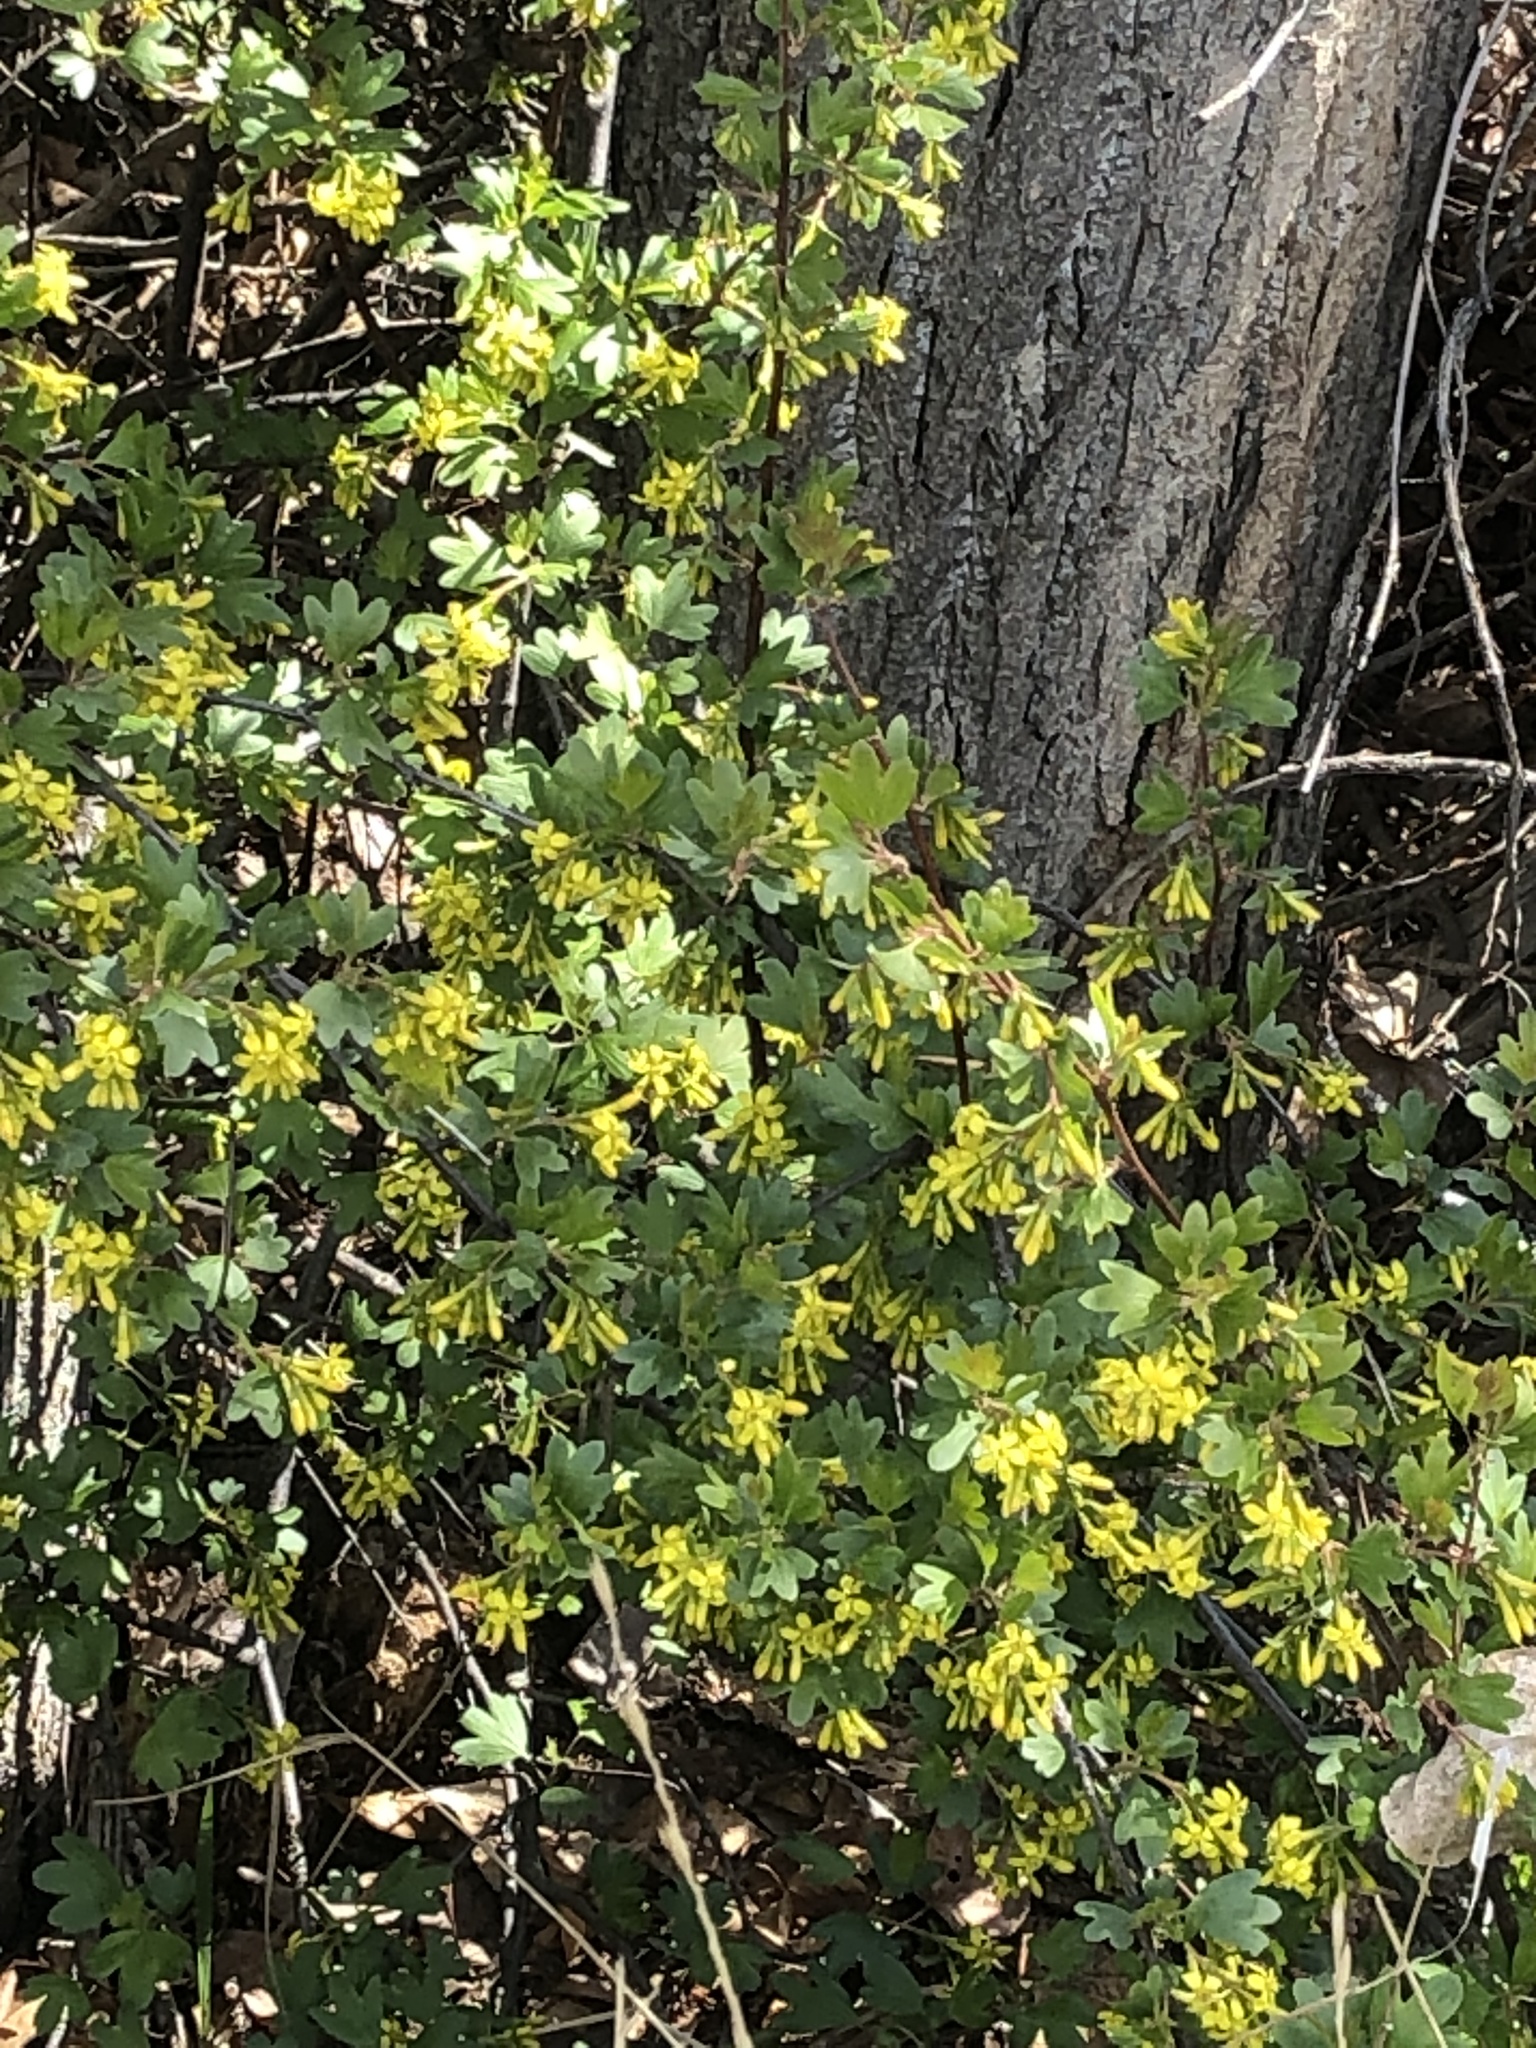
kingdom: Plantae
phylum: Tracheophyta
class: Magnoliopsida
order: Saxifragales
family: Grossulariaceae
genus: Ribes
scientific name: Ribes aureum
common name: Golden currant
